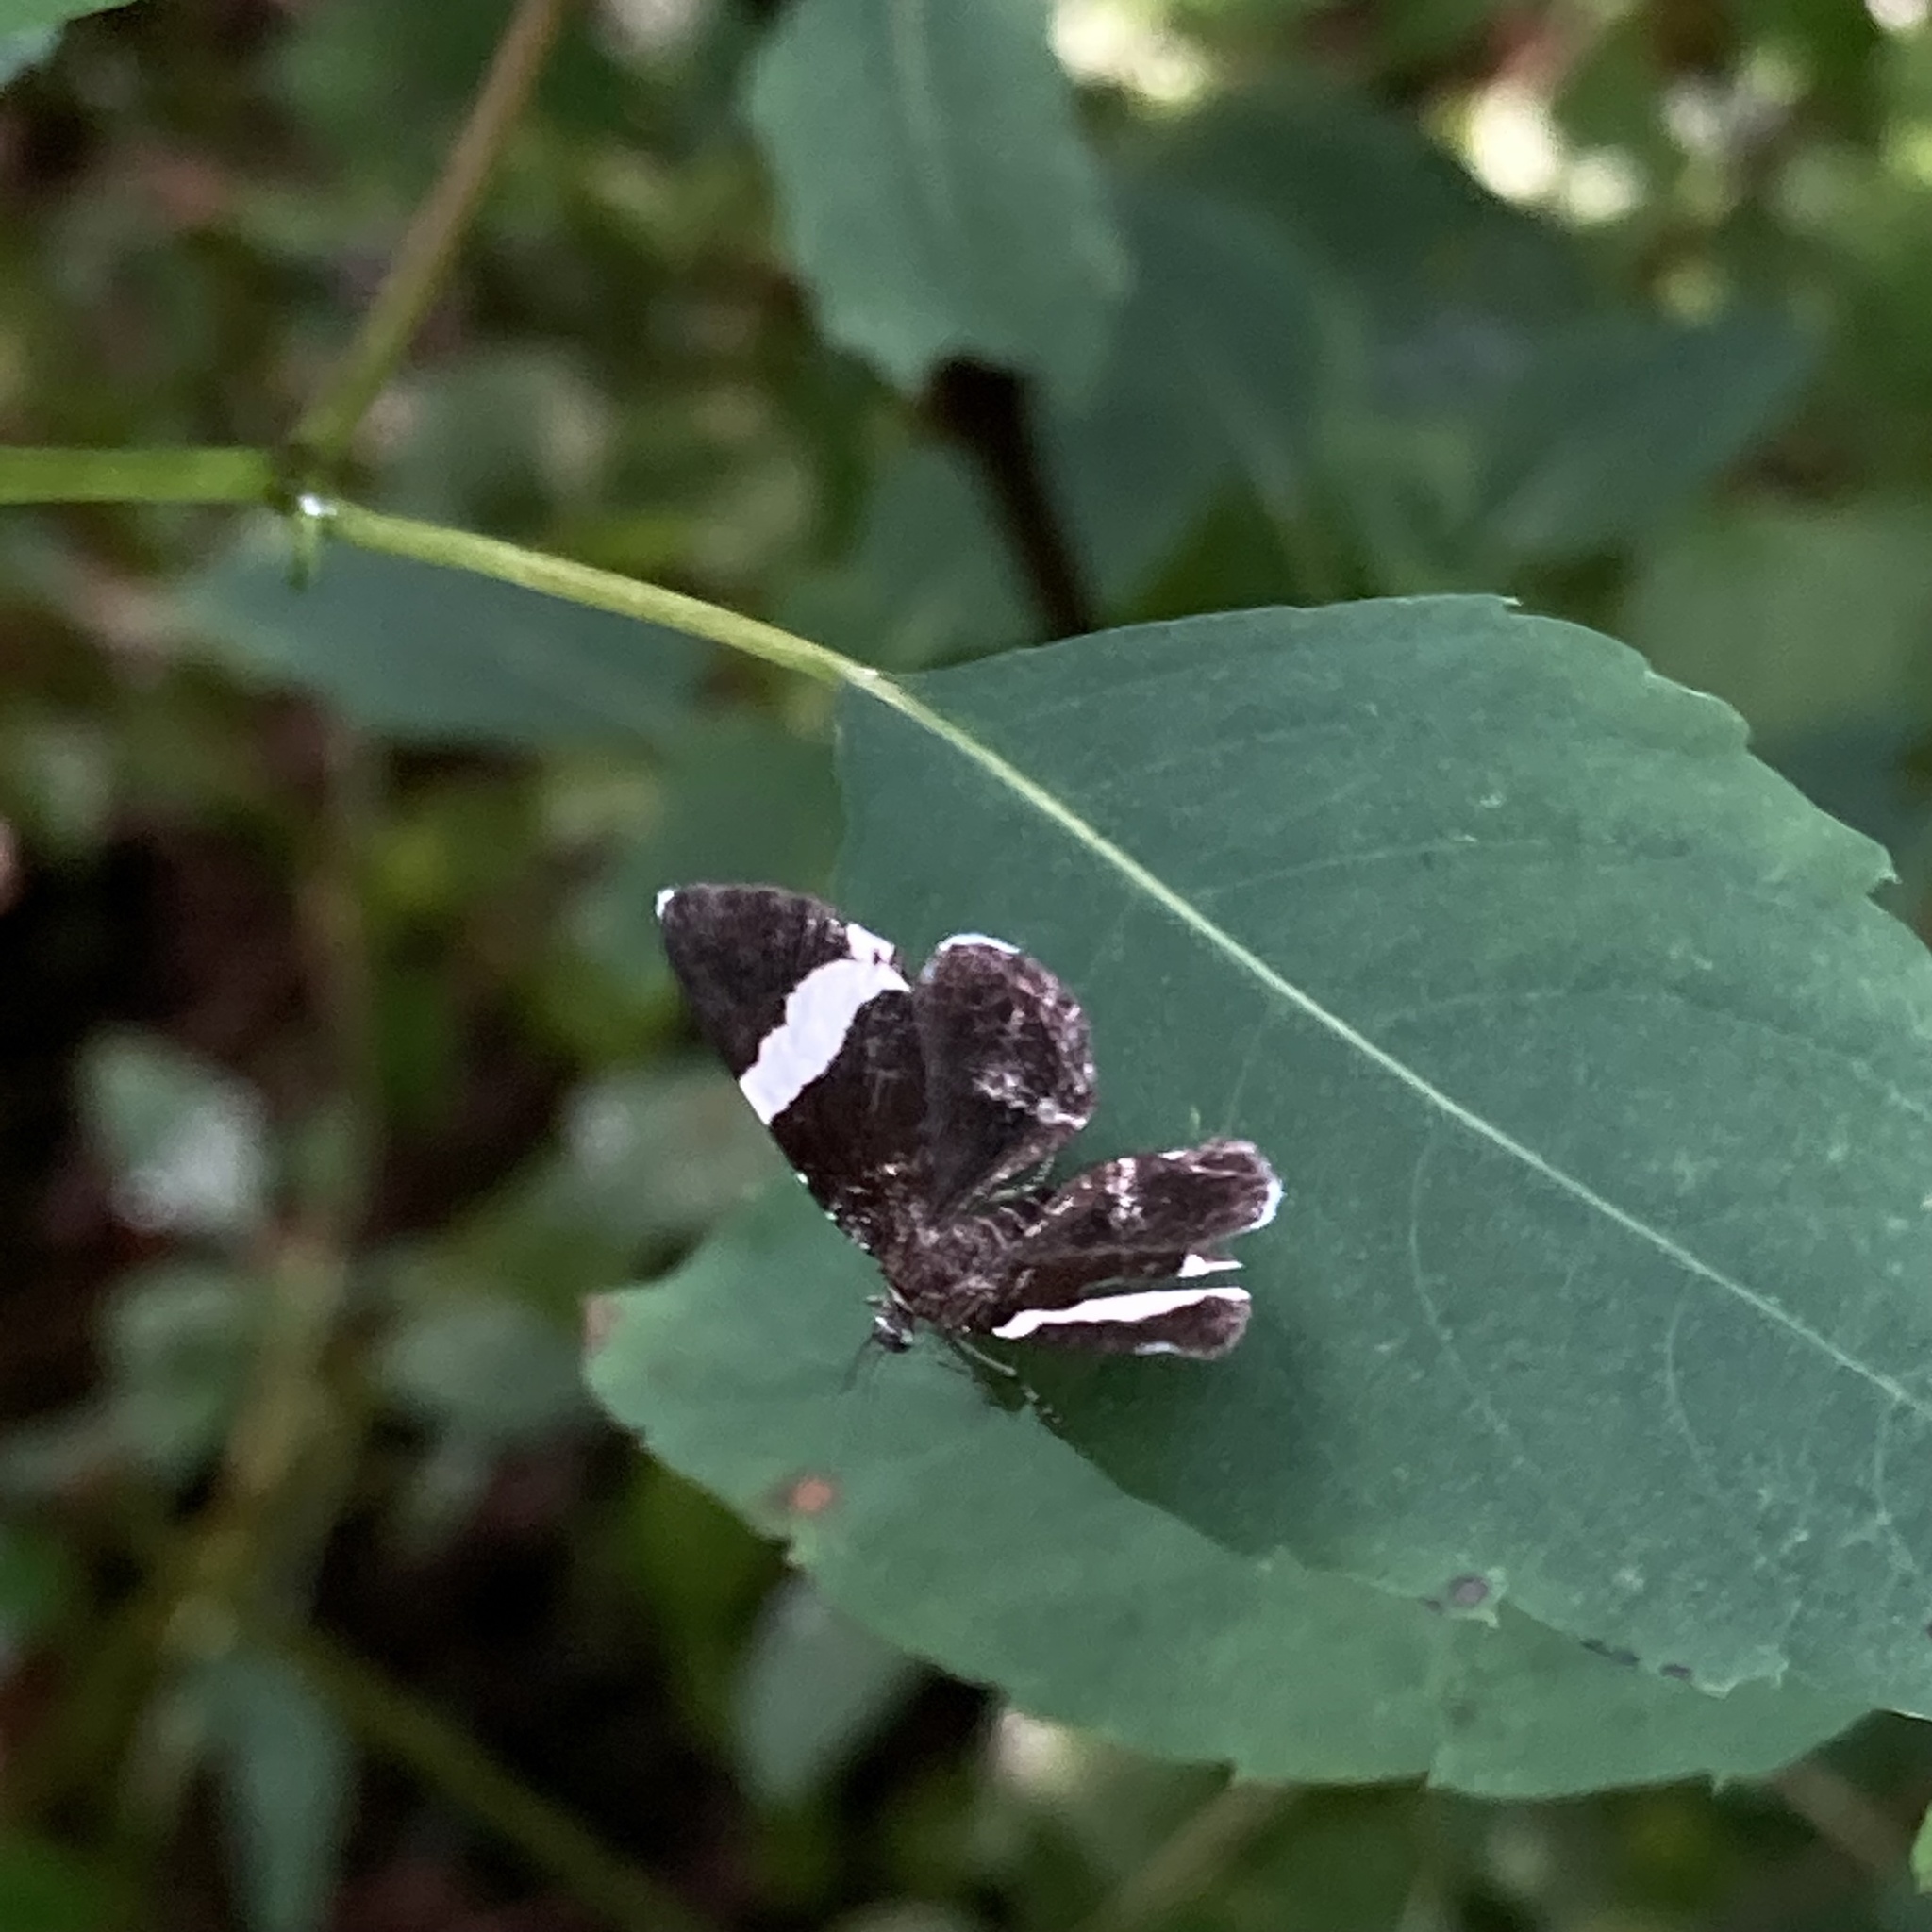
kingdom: Animalia
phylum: Arthropoda
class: Insecta
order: Lepidoptera
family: Geometridae
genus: Trichodezia
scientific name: Trichodezia albovittata
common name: White striped black
